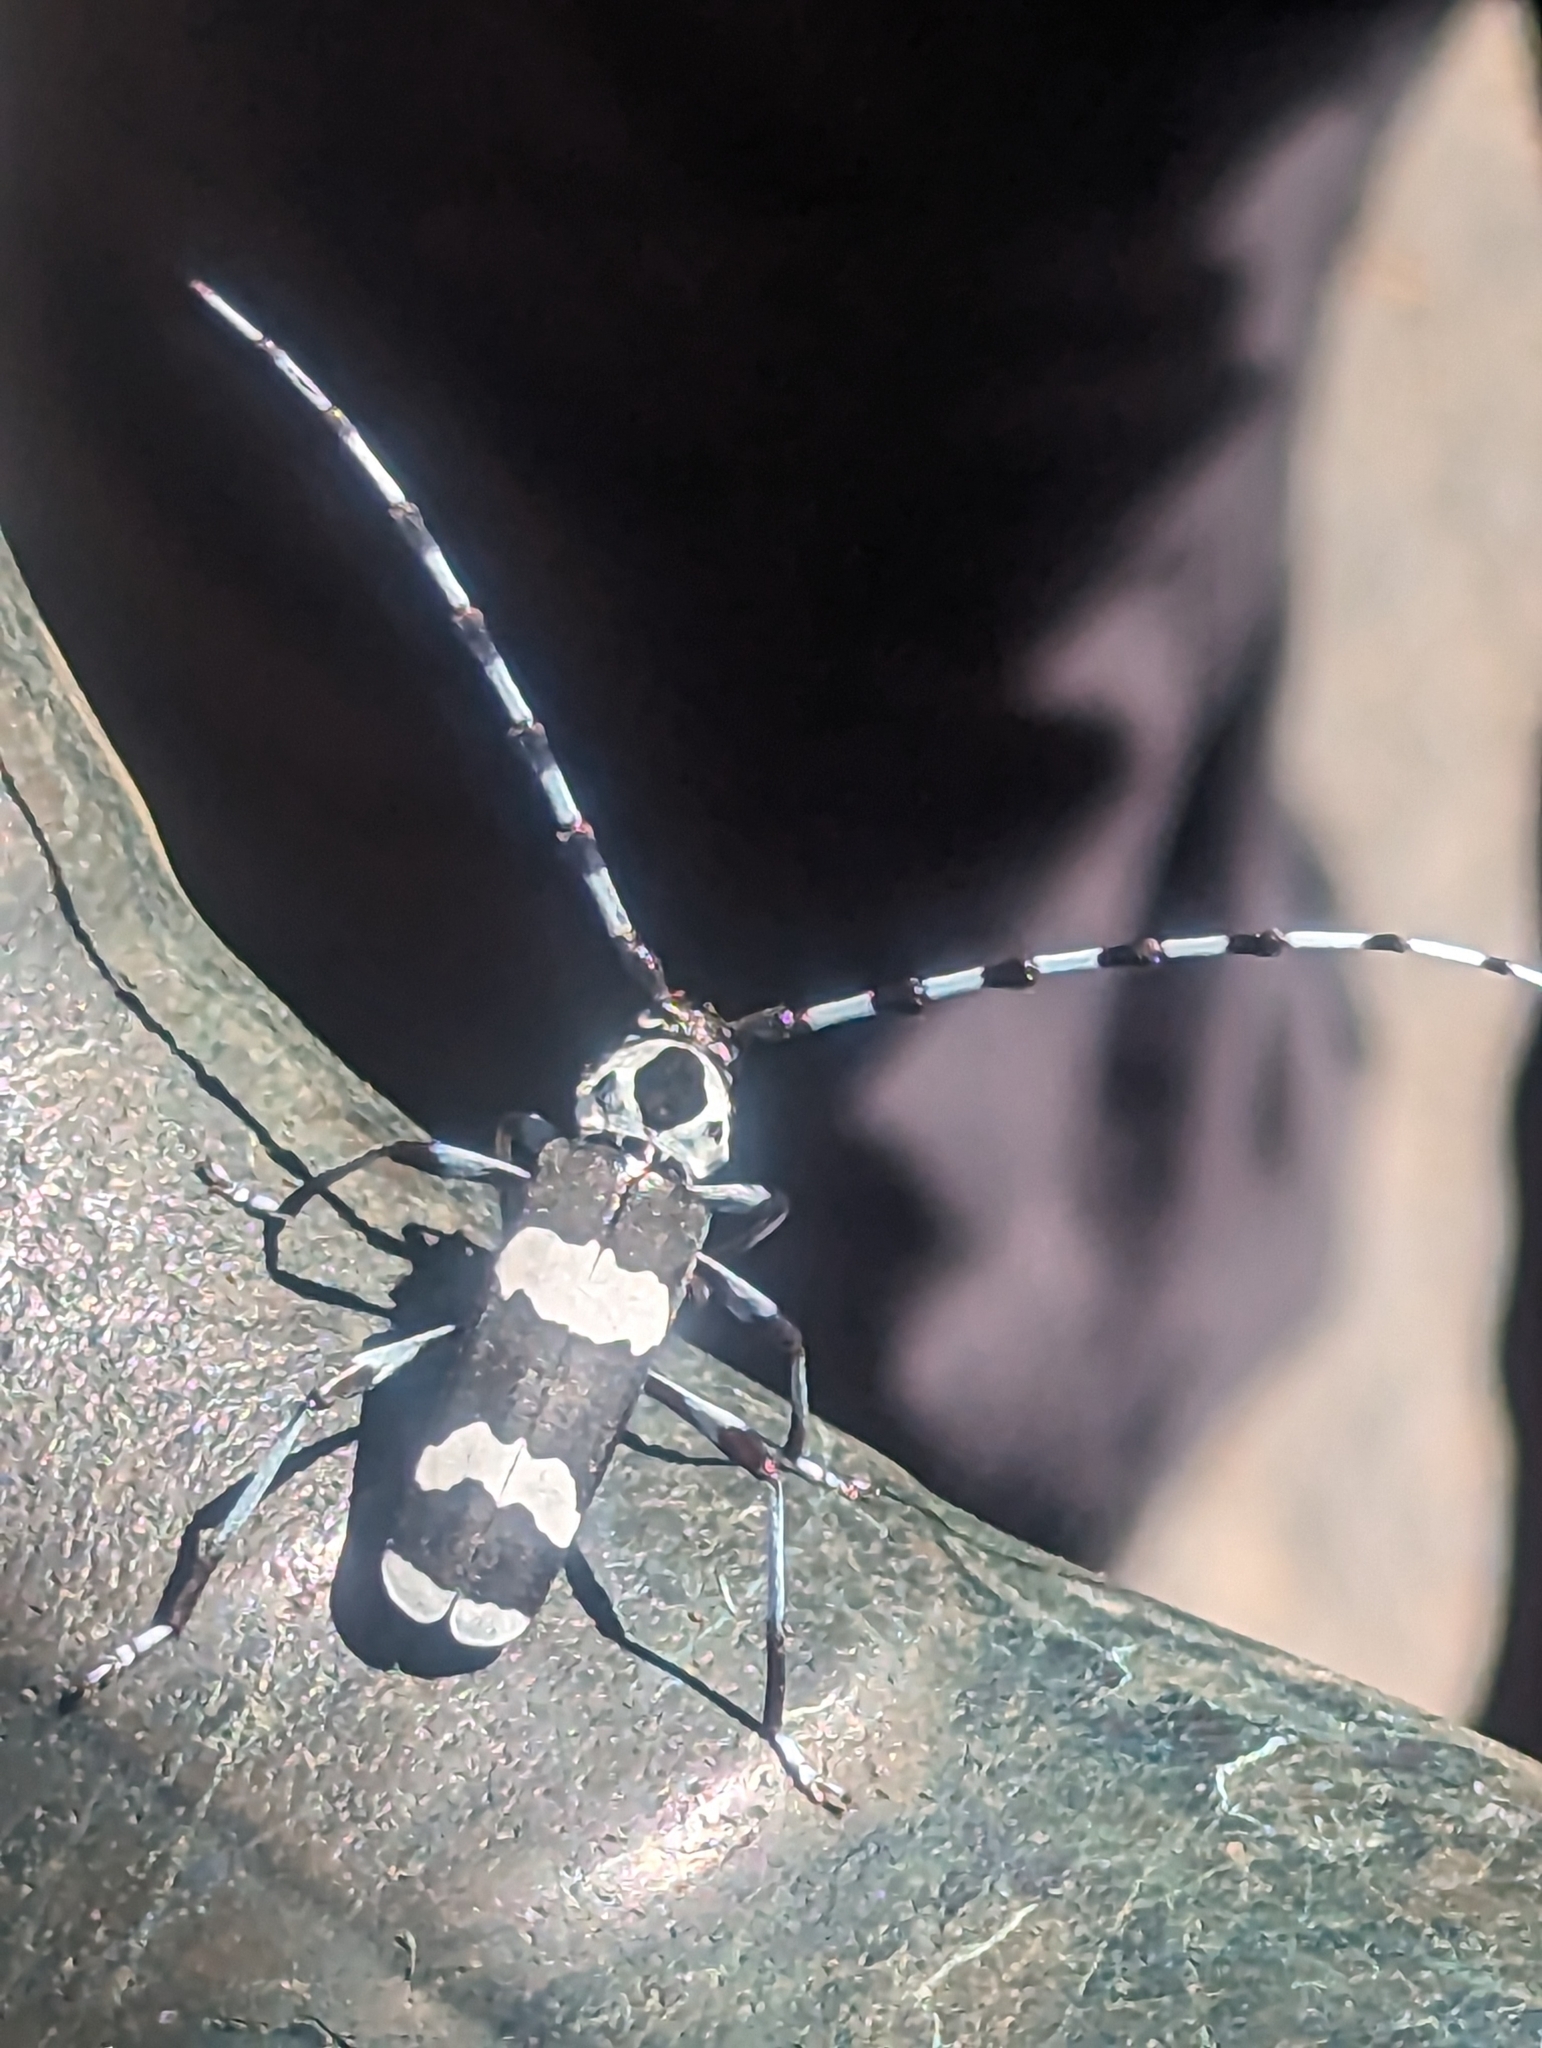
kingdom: Animalia
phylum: Arthropoda
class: Insecta
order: Coleoptera
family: Cerambycidae
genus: Rosalia
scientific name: Rosalia funebris
